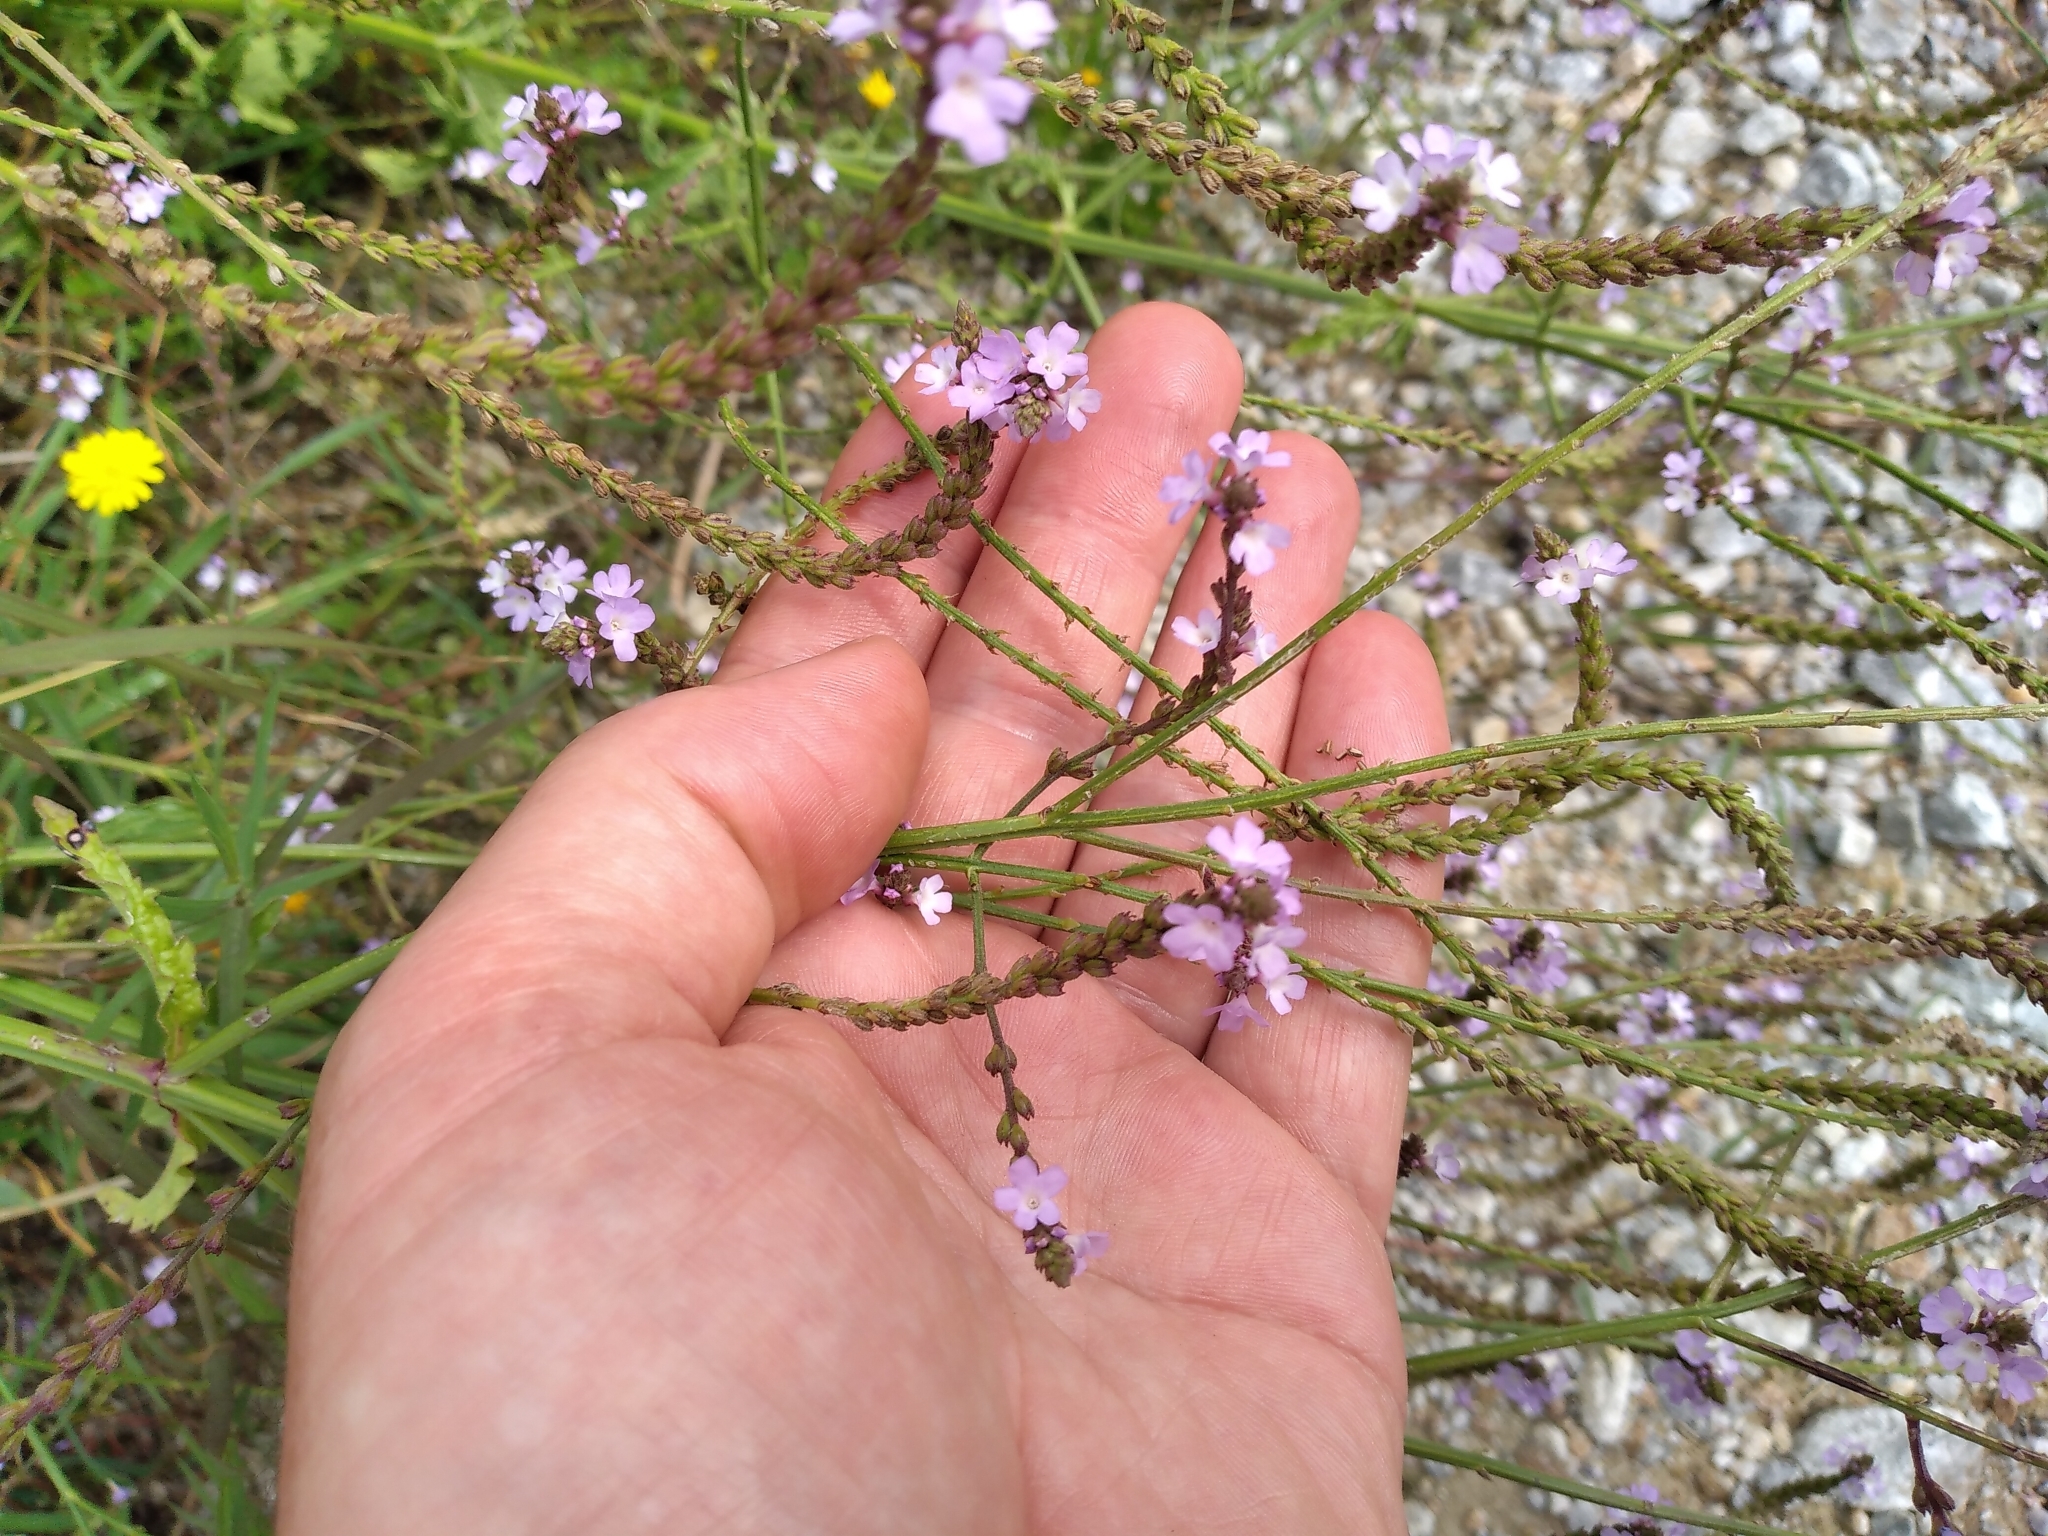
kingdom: Plantae
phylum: Tracheophyta
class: Magnoliopsida
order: Lamiales
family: Verbenaceae
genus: Verbena
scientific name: Verbena officinalis
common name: Vervain
